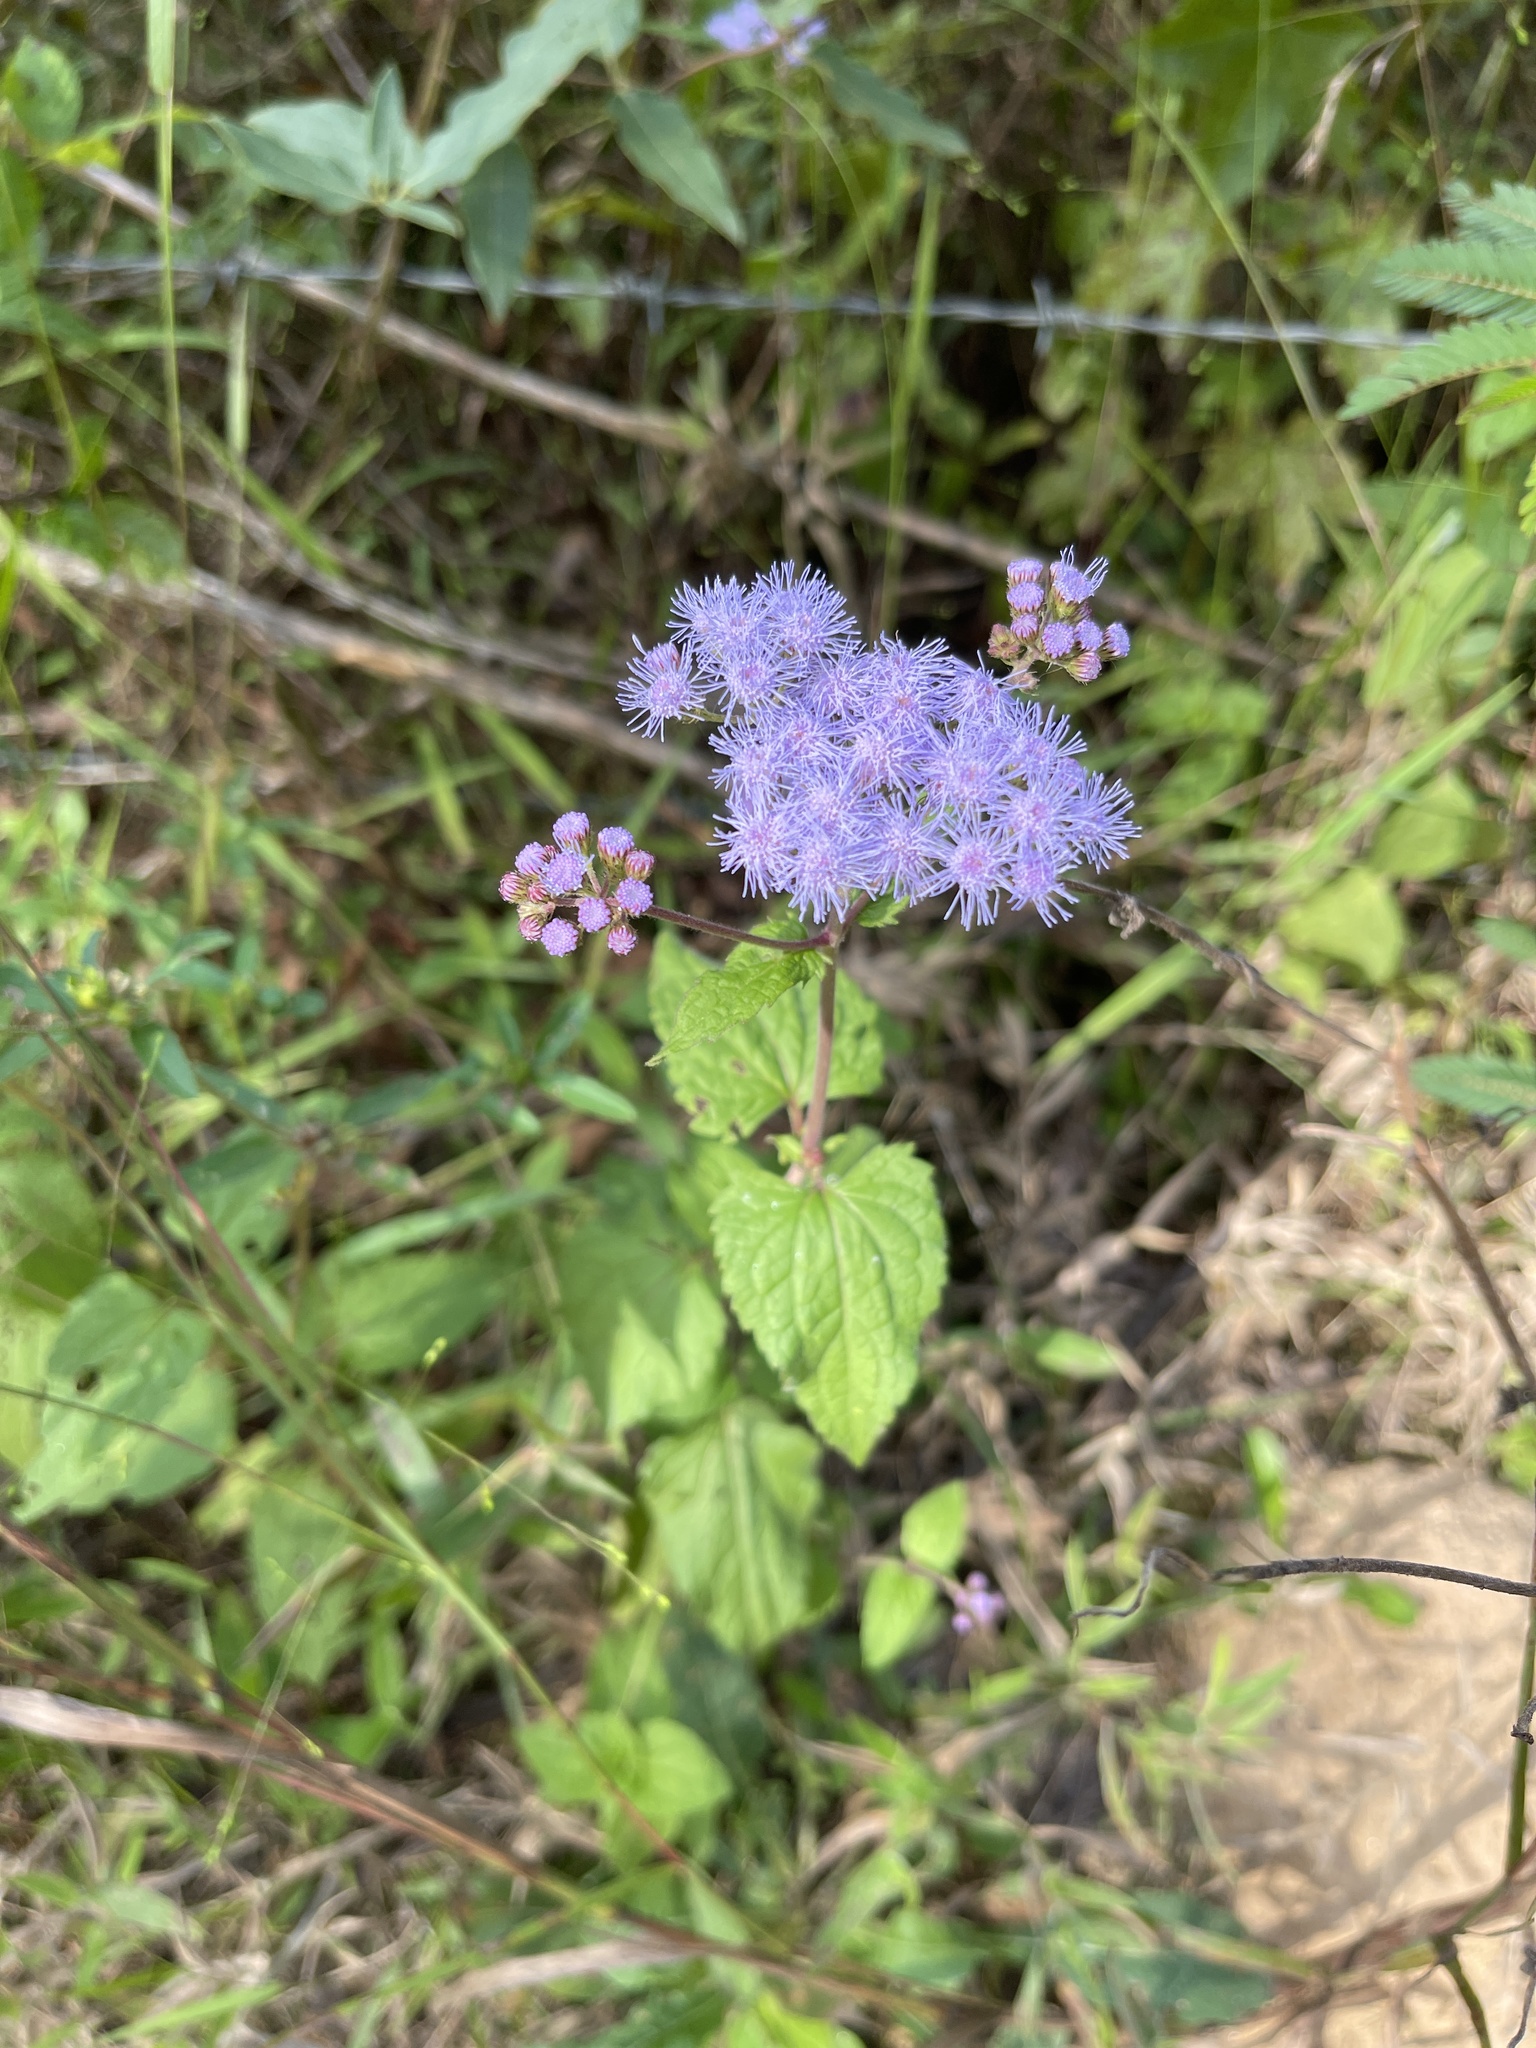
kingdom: Plantae
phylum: Tracheophyta
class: Magnoliopsida
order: Asterales
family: Asteraceae
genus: Conoclinium
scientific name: Conoclinium coelestinum
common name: Blue mistflower
